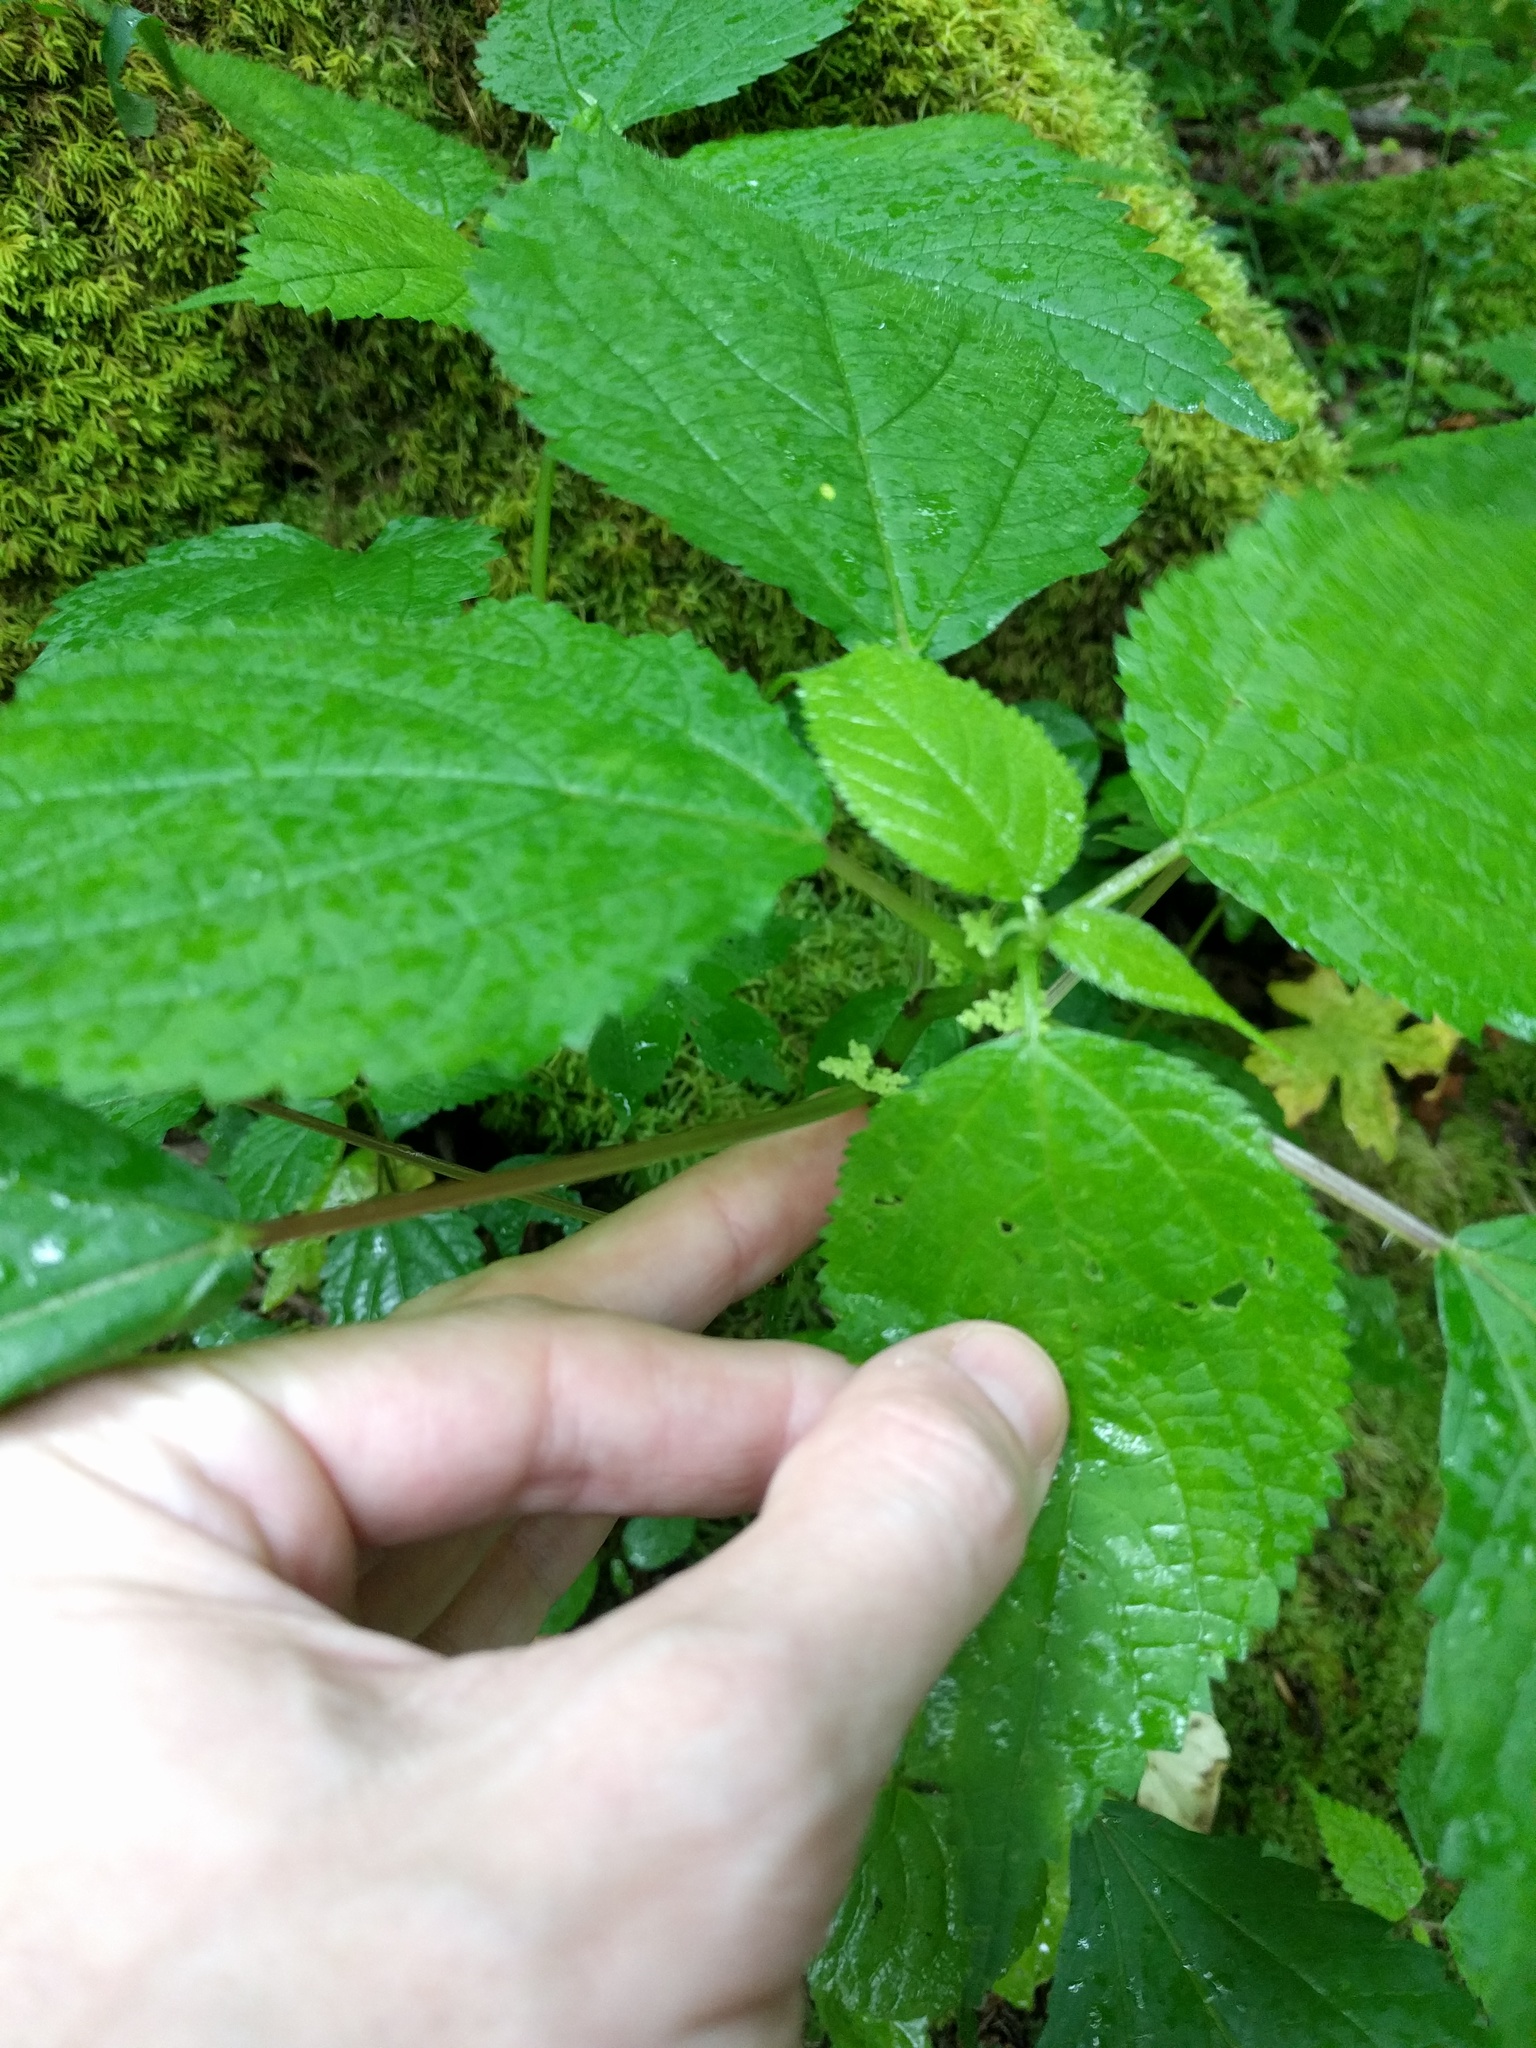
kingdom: Plantae
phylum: Tracheophyta
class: Magnoliopsida
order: Rosales
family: Urticaceae
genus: Laportea
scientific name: Laportea canadensis
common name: Canada nettle
